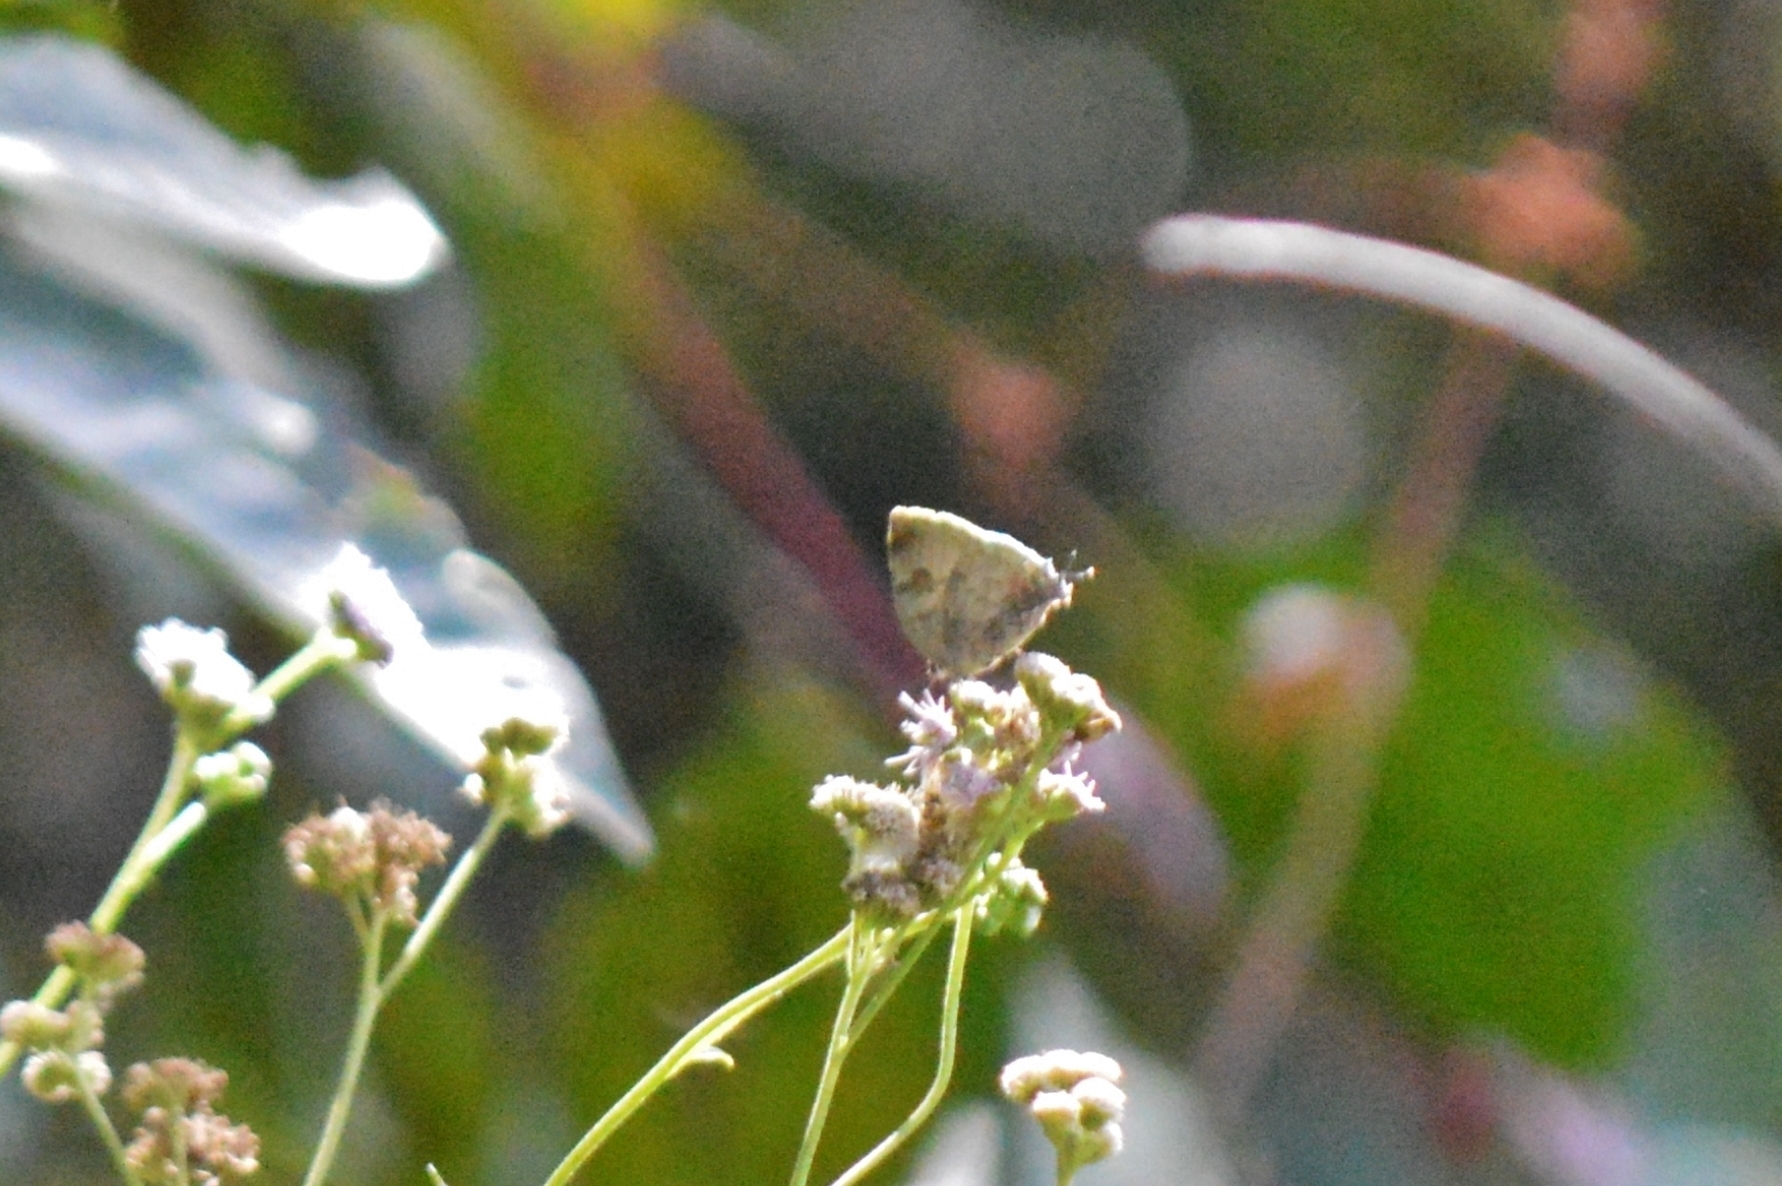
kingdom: Animalia
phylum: Arthropoda
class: Insecta
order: Lepidoptera
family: Lycaenidae
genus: Panthiades
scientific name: Panthiades hebraeus
